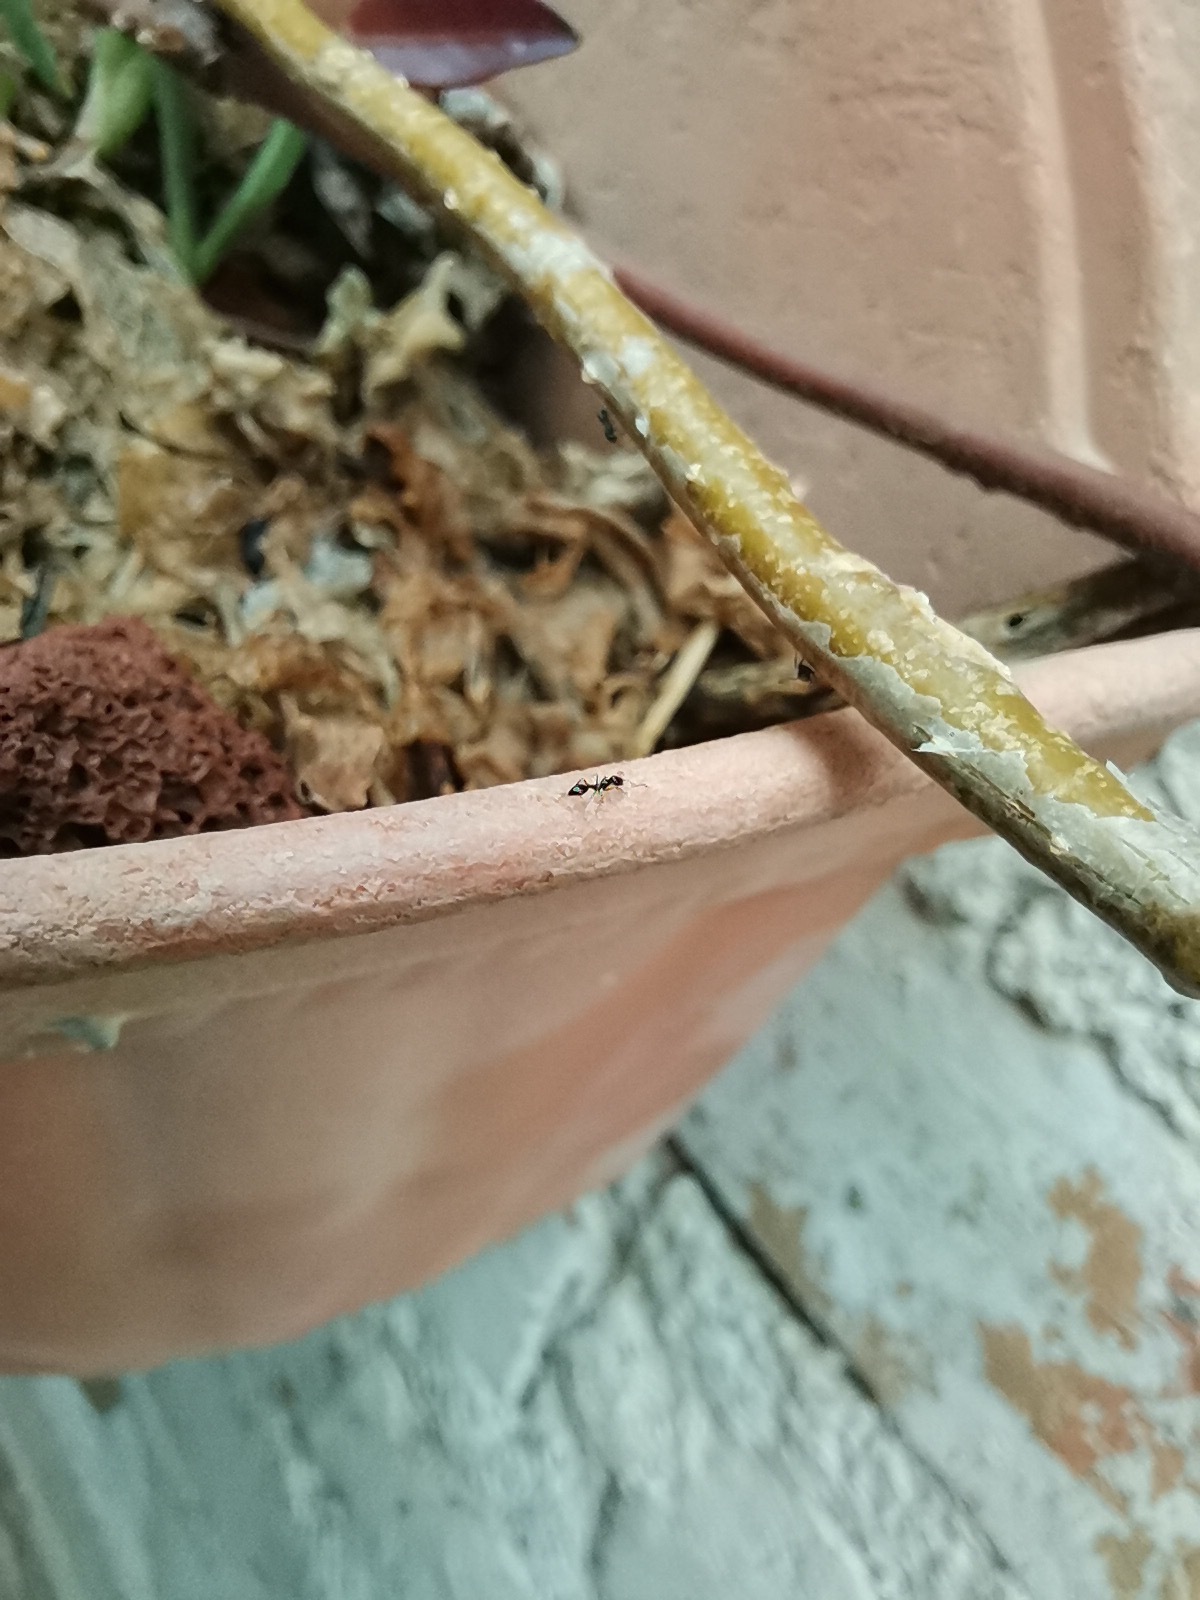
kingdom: Animalia
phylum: Arthropoda
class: Insecta
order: Hymenoptera
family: Formicidae
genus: Paratrechina
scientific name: Paratrechina longicornis
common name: Longhorned crazy ant
